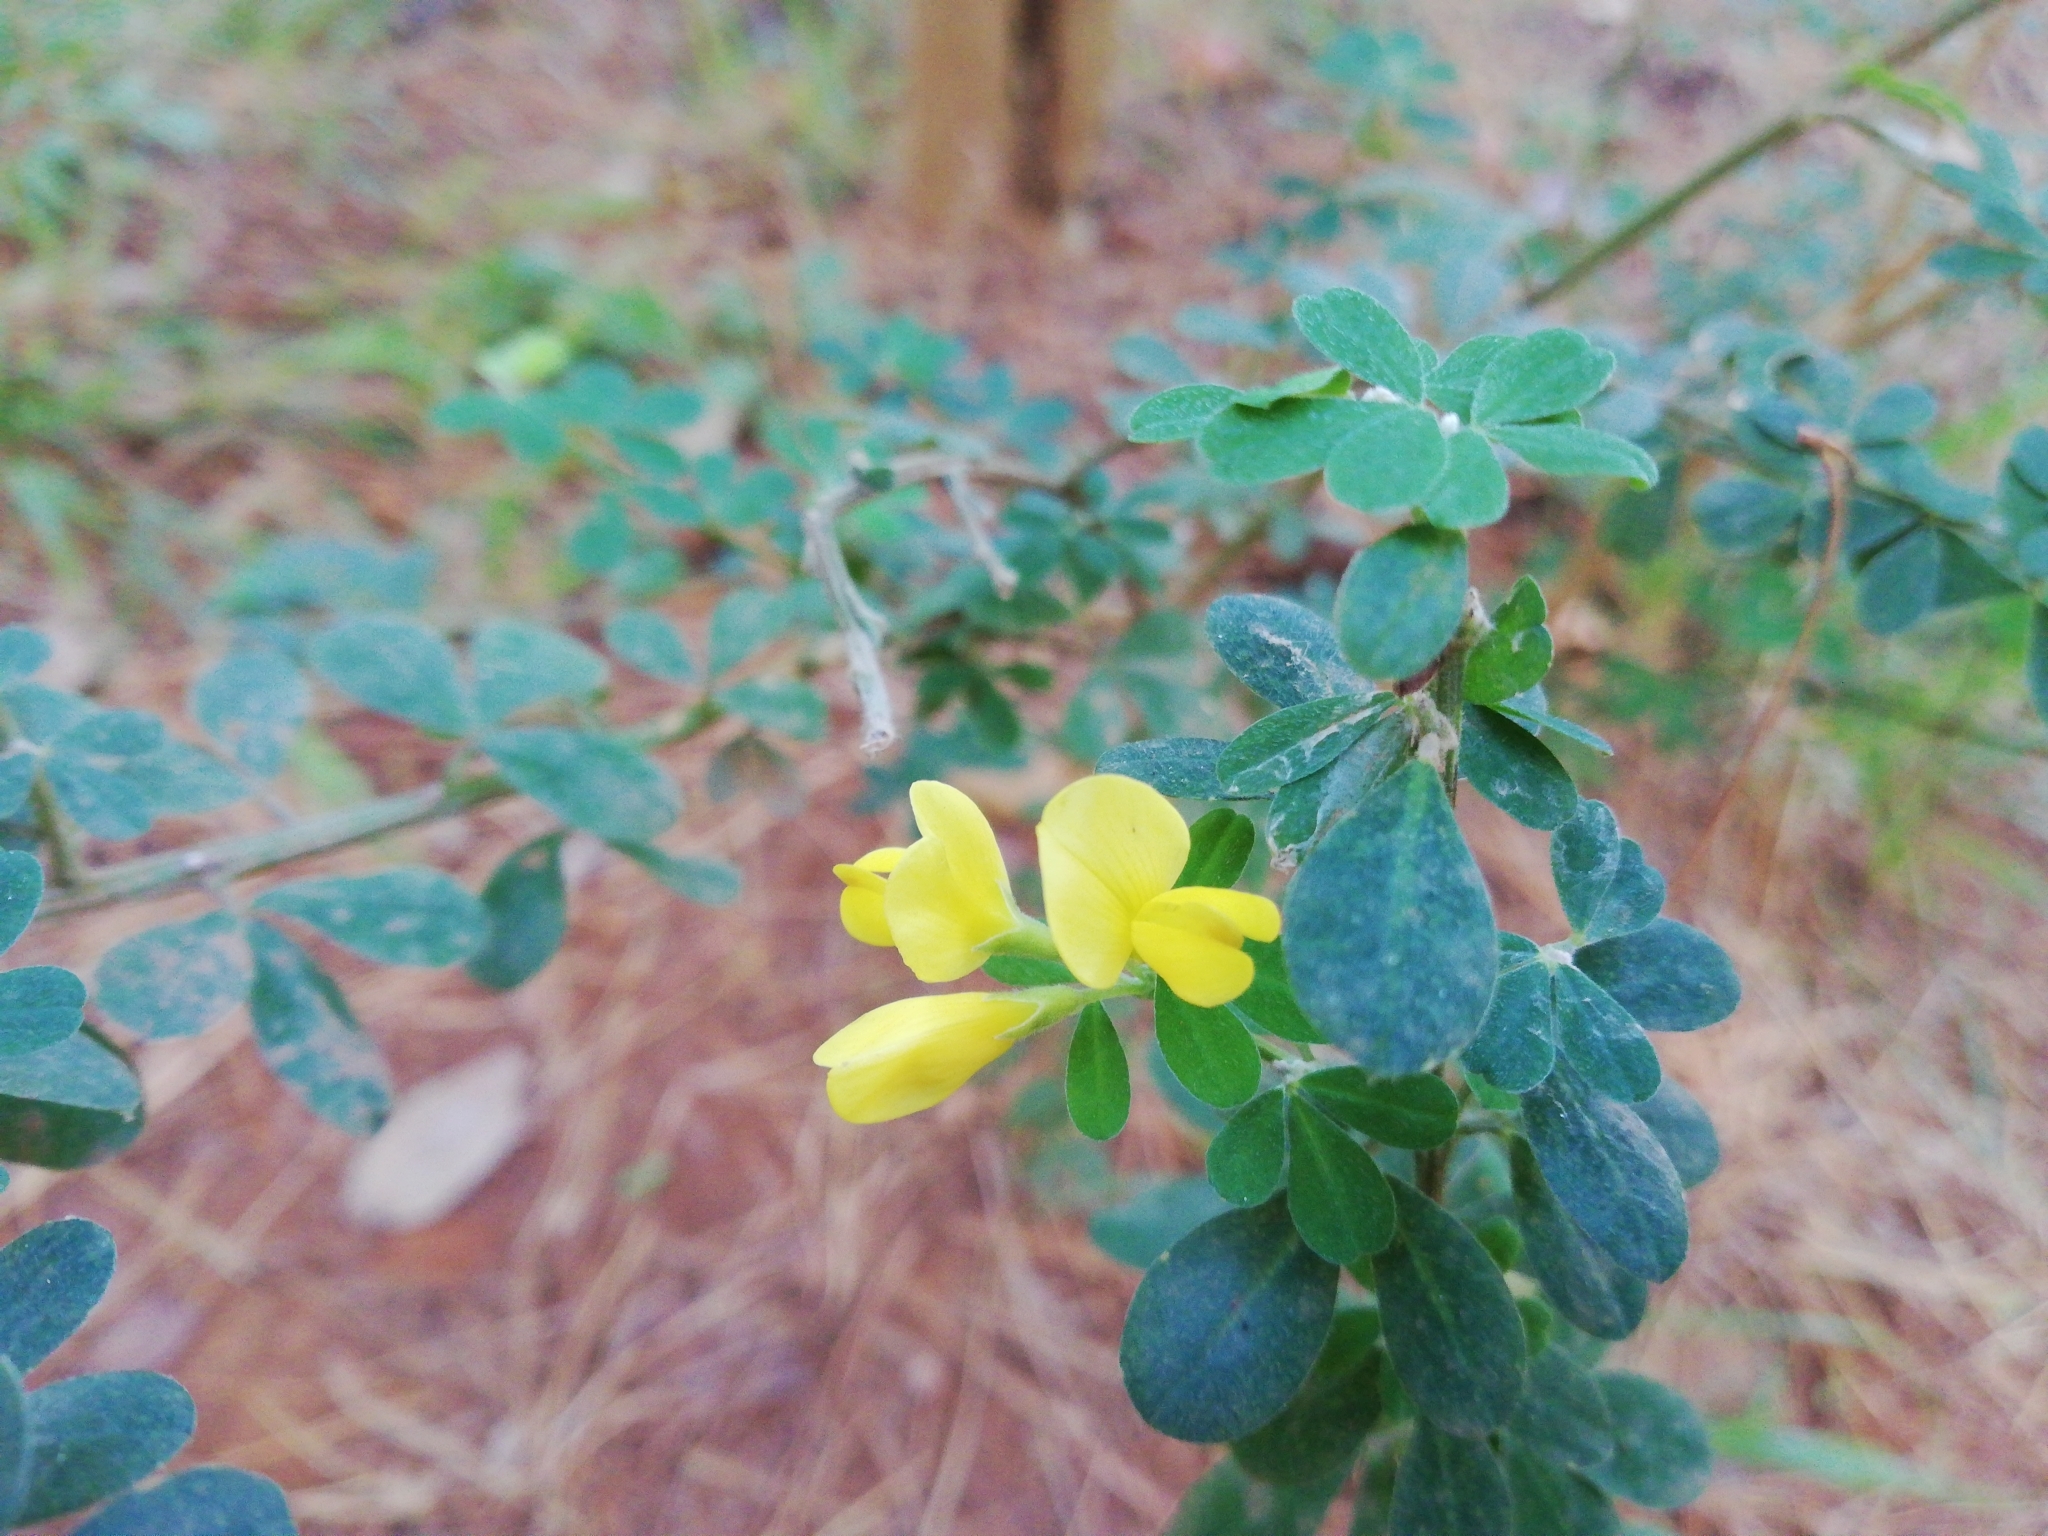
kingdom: Plantae
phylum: Tracheophyta
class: Magnoliopsida
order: Fabales
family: Fabaceae
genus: Genista
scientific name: Genista monspessulana
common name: Montpellier broom
